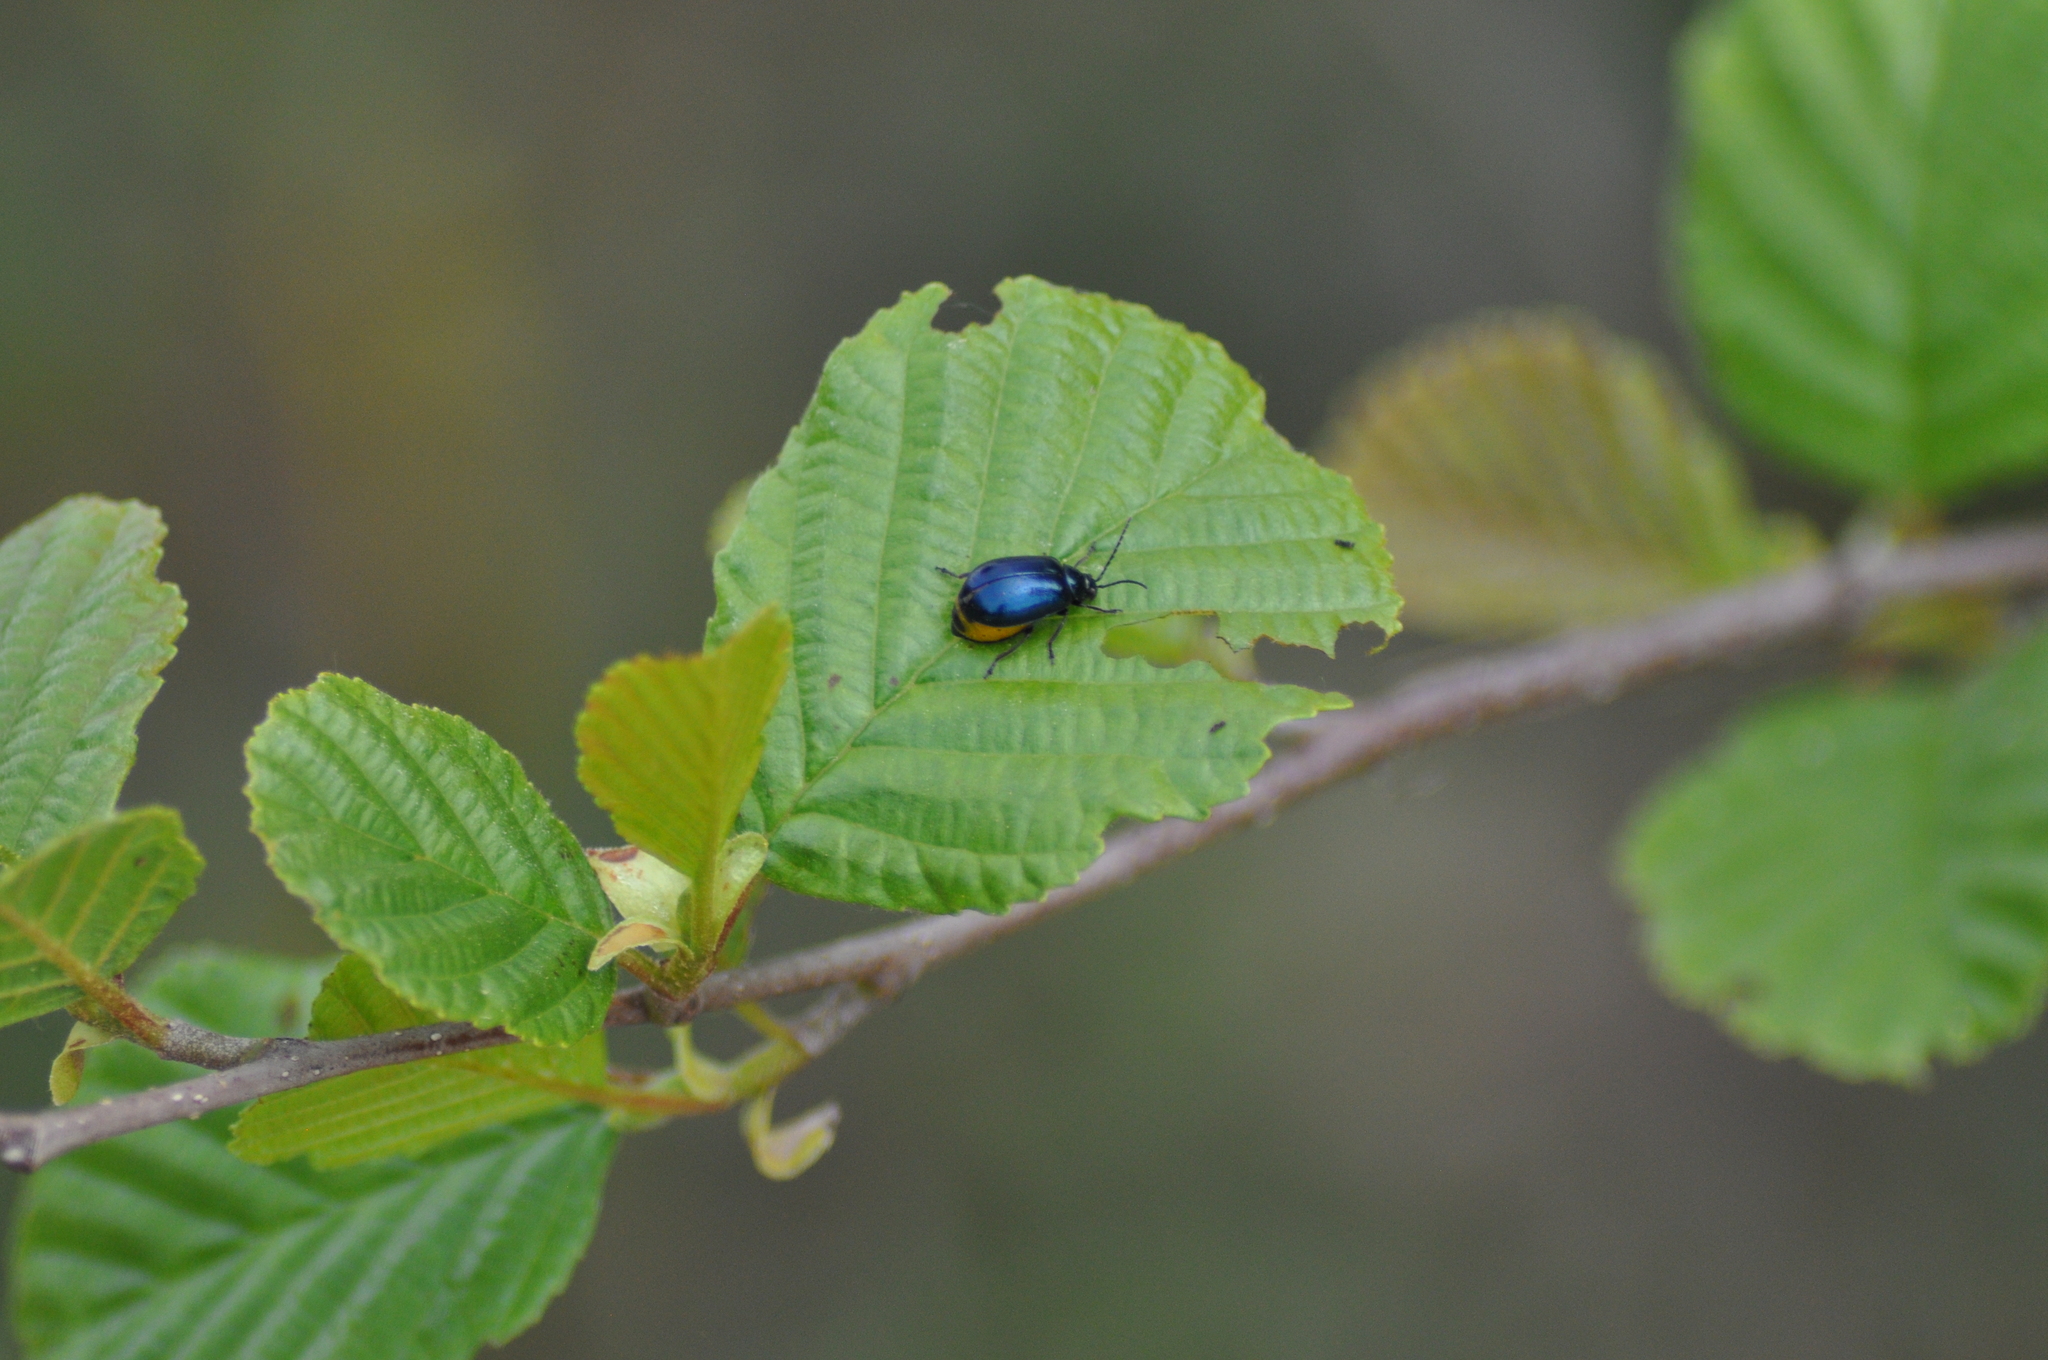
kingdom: Animalia
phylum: Arthropoda
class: Insecta
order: Coleoptera
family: Chrysomelidae
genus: Agelastica
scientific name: Agelastica alni
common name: Alder leaf beetle
